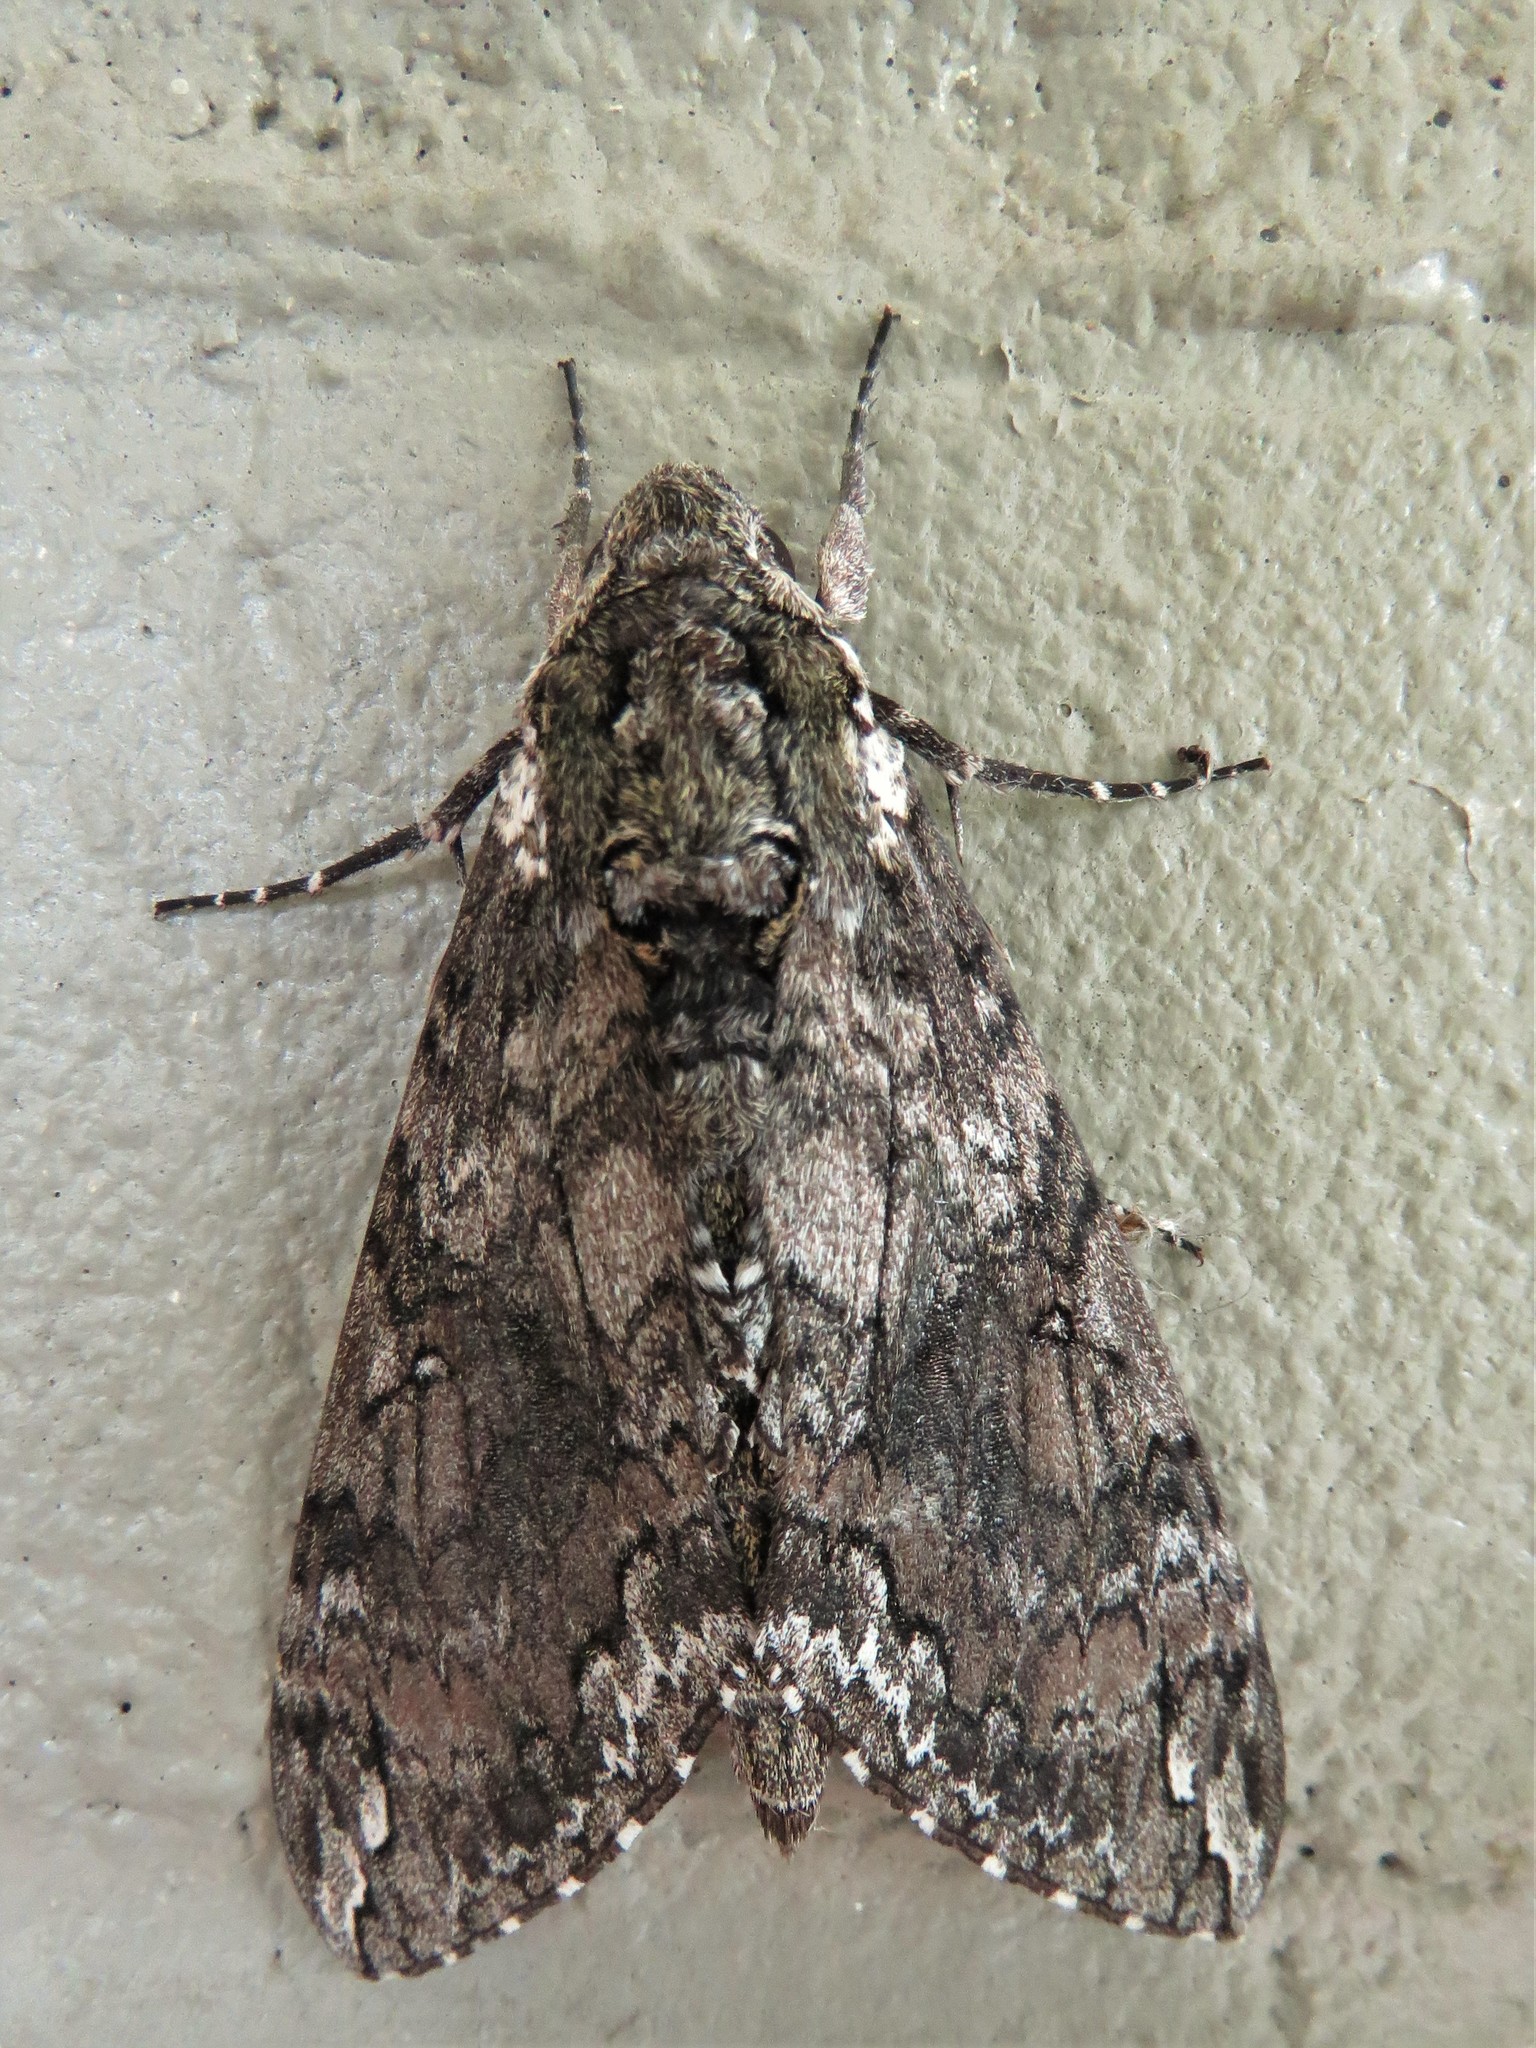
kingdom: Animalia
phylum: Arthropoda
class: Insecta
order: Lepidoptera
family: Sphingidae
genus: Manduca
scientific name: Manduca sexta
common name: Carolina sphinx
